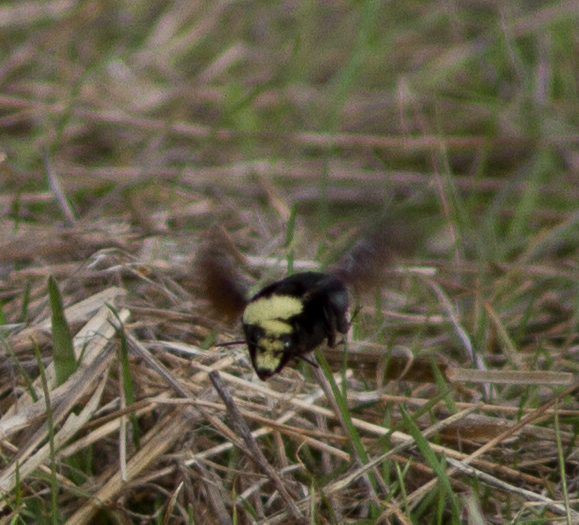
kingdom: Animalia
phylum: Arthropoda
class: Insecta
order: Hymenoptera
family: Apidae
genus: Pyrobombus
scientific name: Pyrobombus
